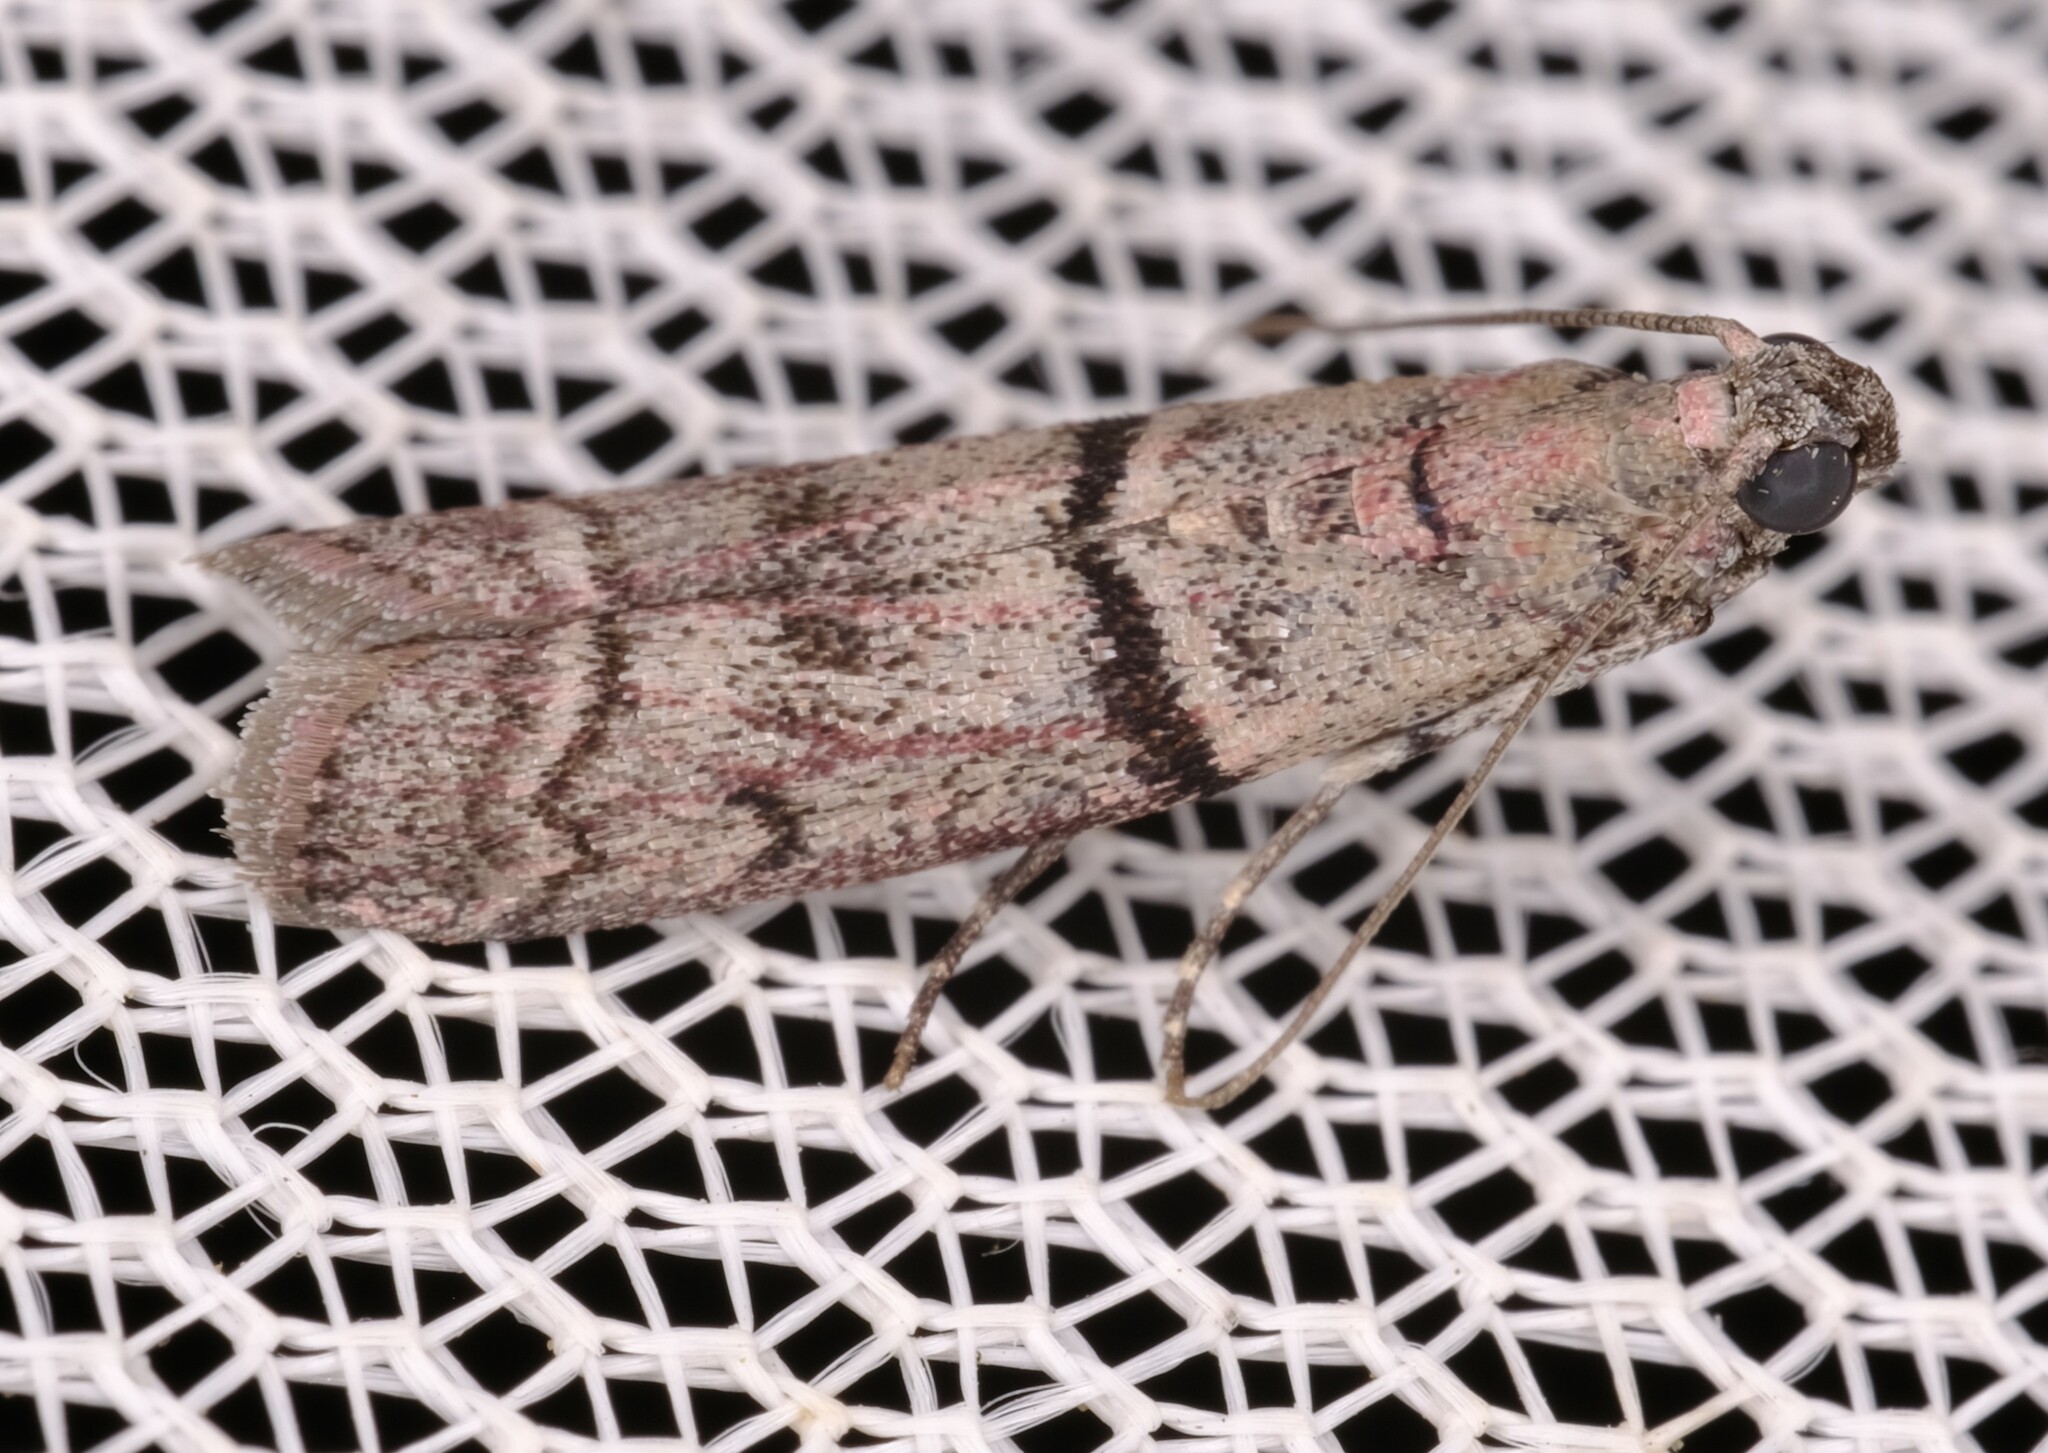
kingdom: Animalia
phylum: Arthropoda
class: Insecta
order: Lepidoptera
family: Pyralidae
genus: Cryptoblabes
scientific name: Cryptoblabes euraphella
